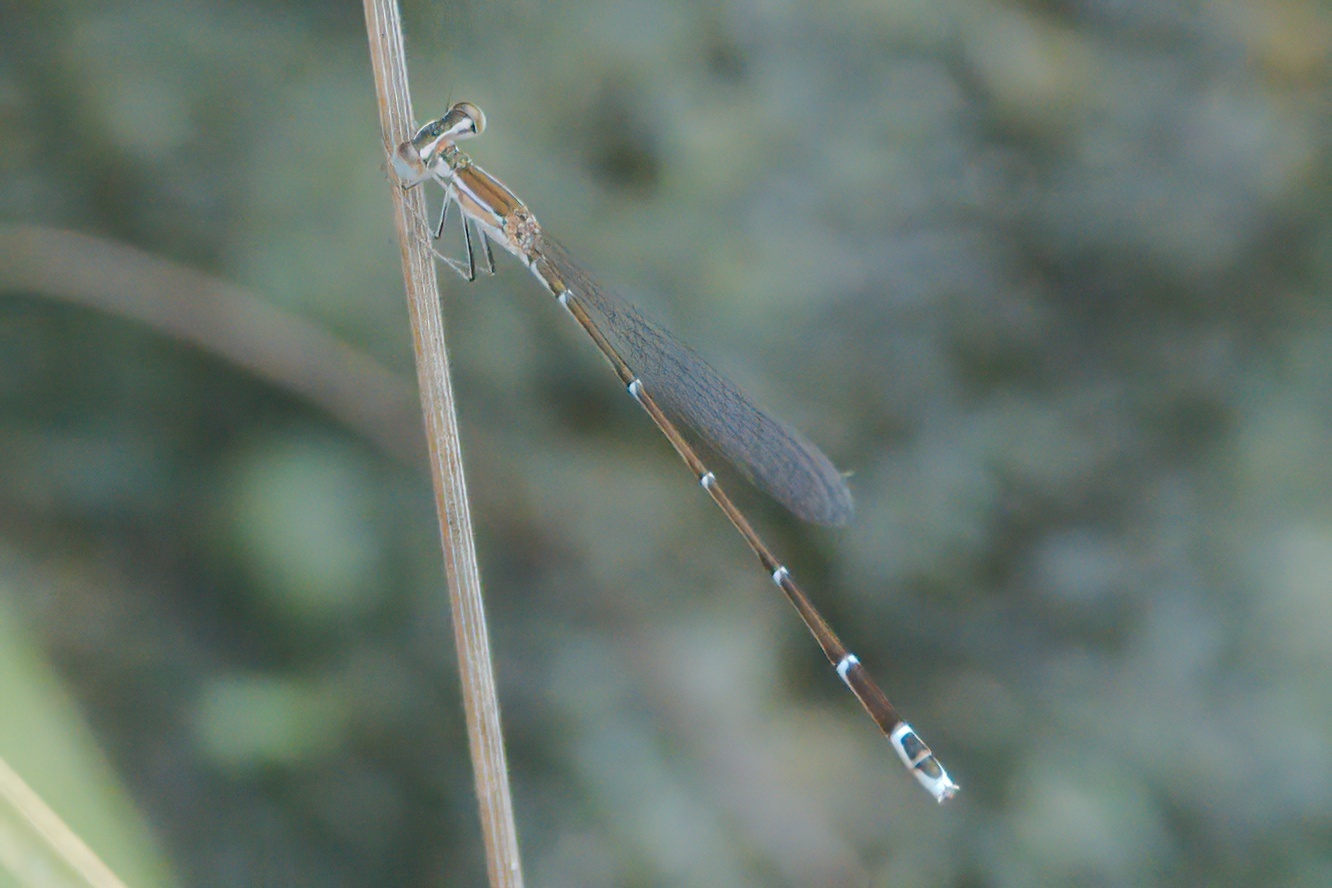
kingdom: Animalia
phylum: Arthropoda
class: Insecta
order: Odonata
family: Coenagrionidae
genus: Nehalennia
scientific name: Nehalennia pallidula
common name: Everglades sprite
